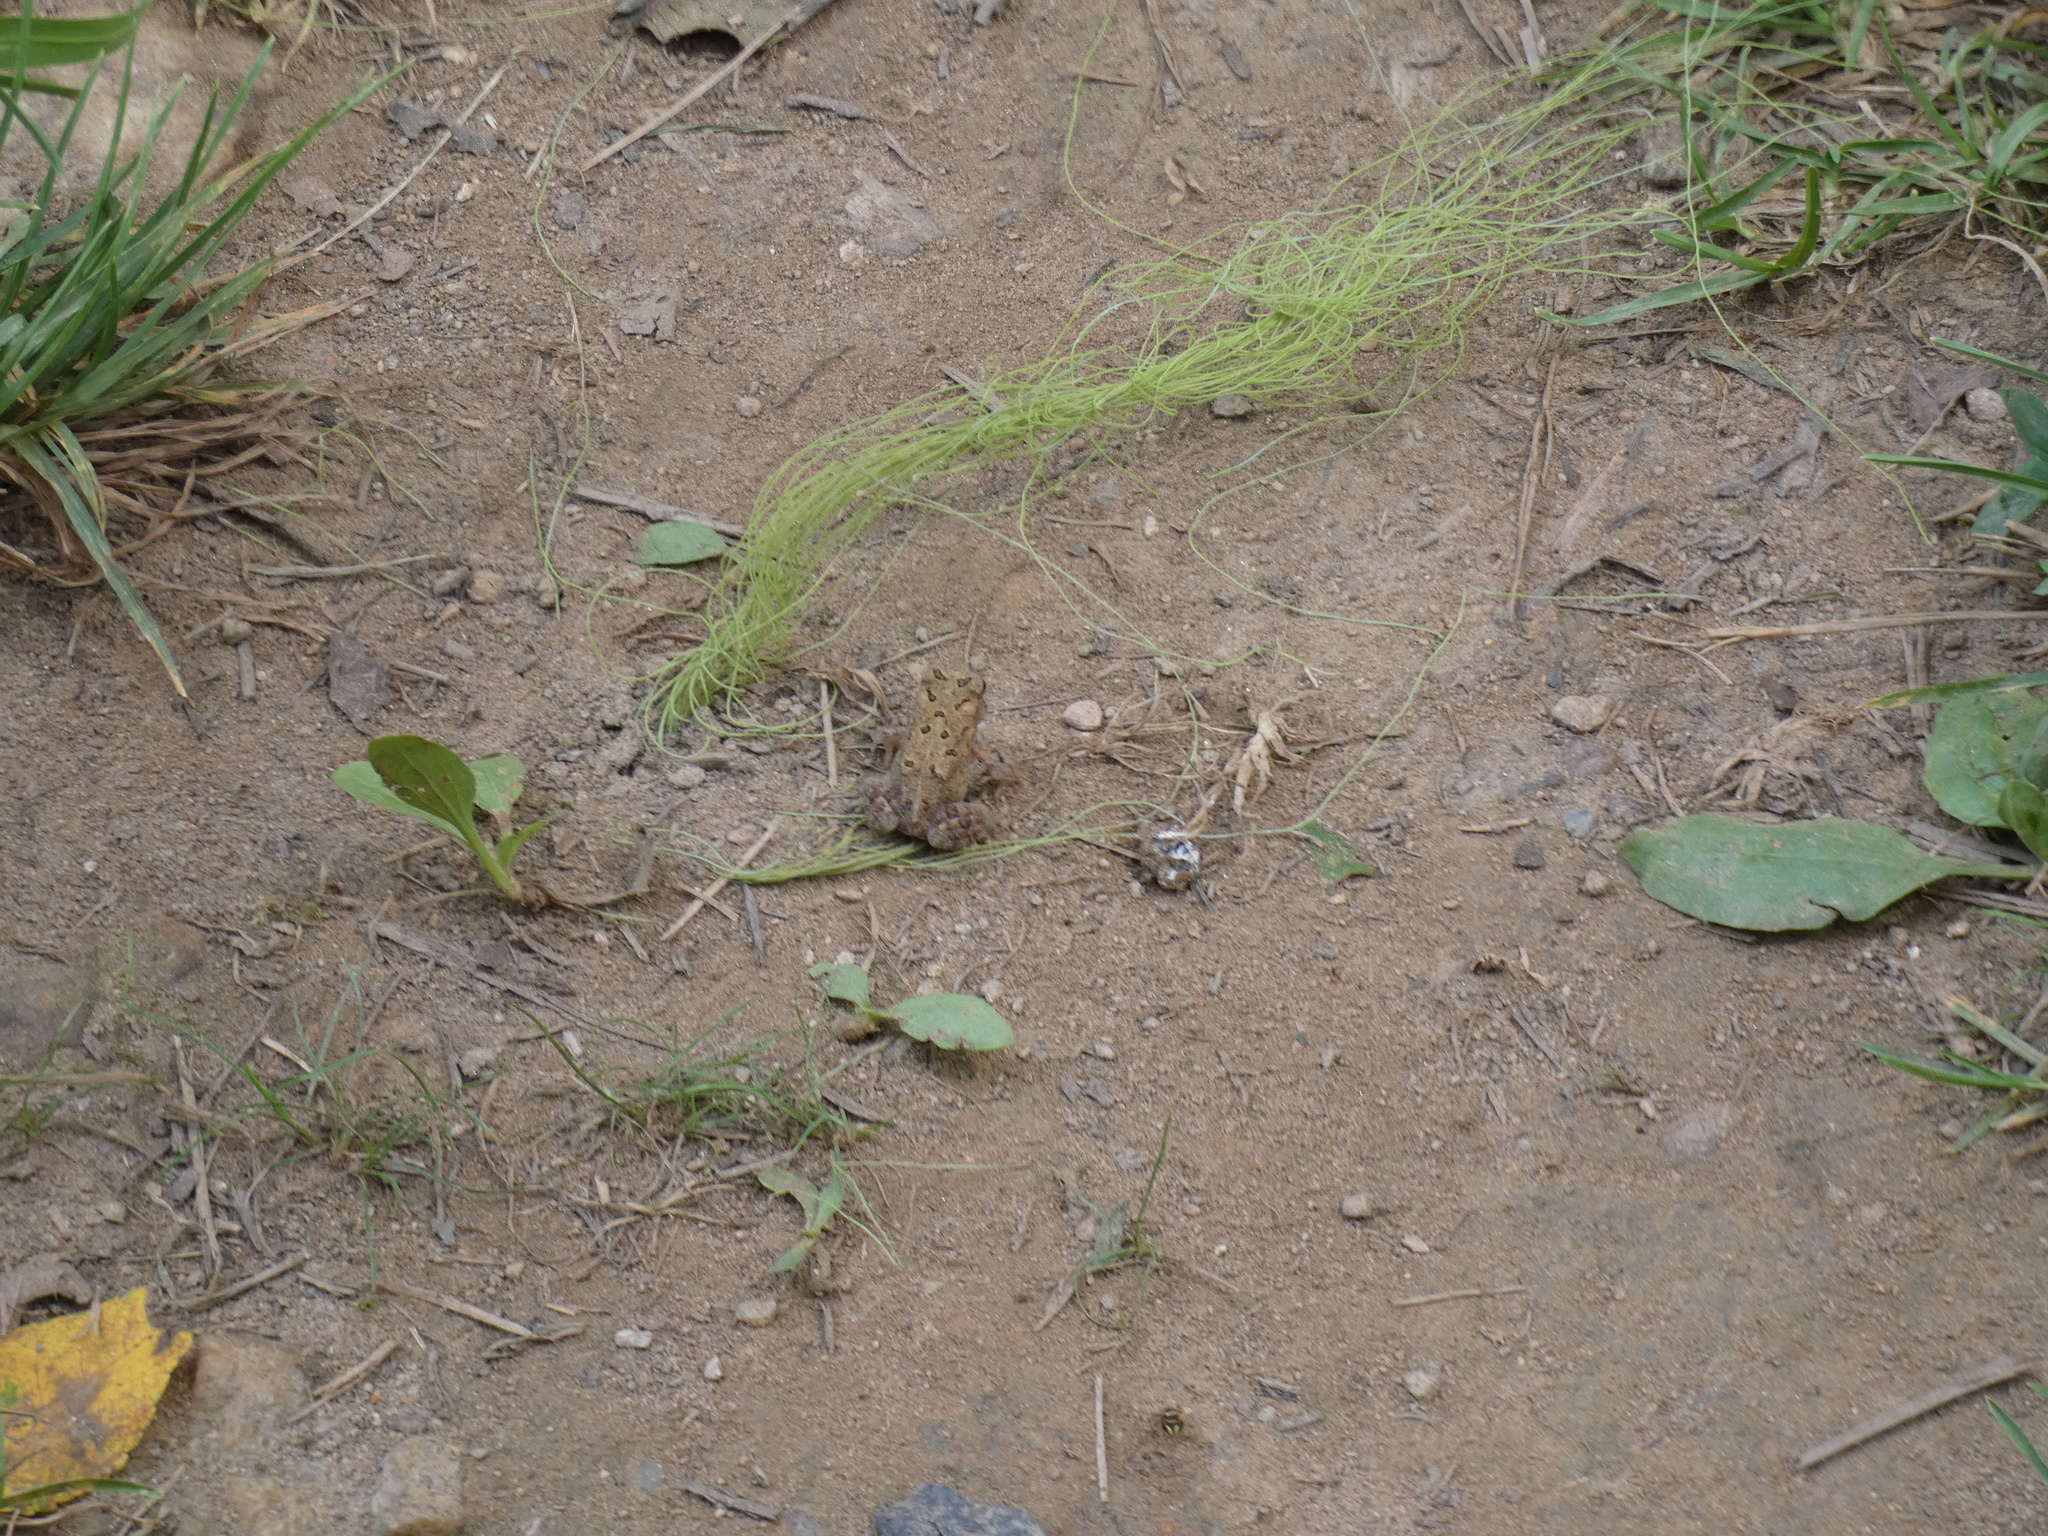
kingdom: Animalia
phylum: Chordata
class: Amphibia
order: Anura
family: Bufonidae
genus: Anaxyrus
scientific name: Anaxyrus americanus
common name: American toad
